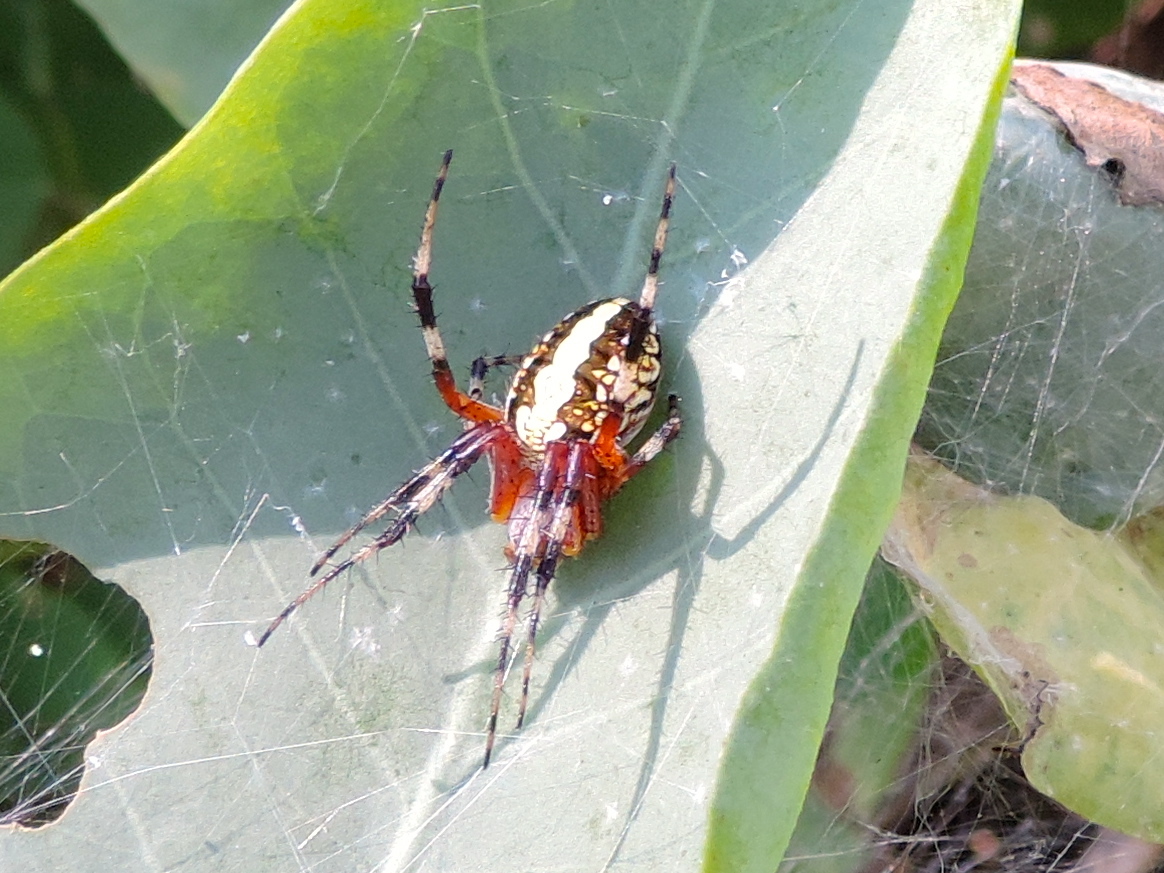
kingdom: Animalia
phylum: Arthropoda
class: Arachnida
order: Araneae
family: Araneidae
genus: Neoscona
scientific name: Neoscona oaxacensis
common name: Orb weavers
